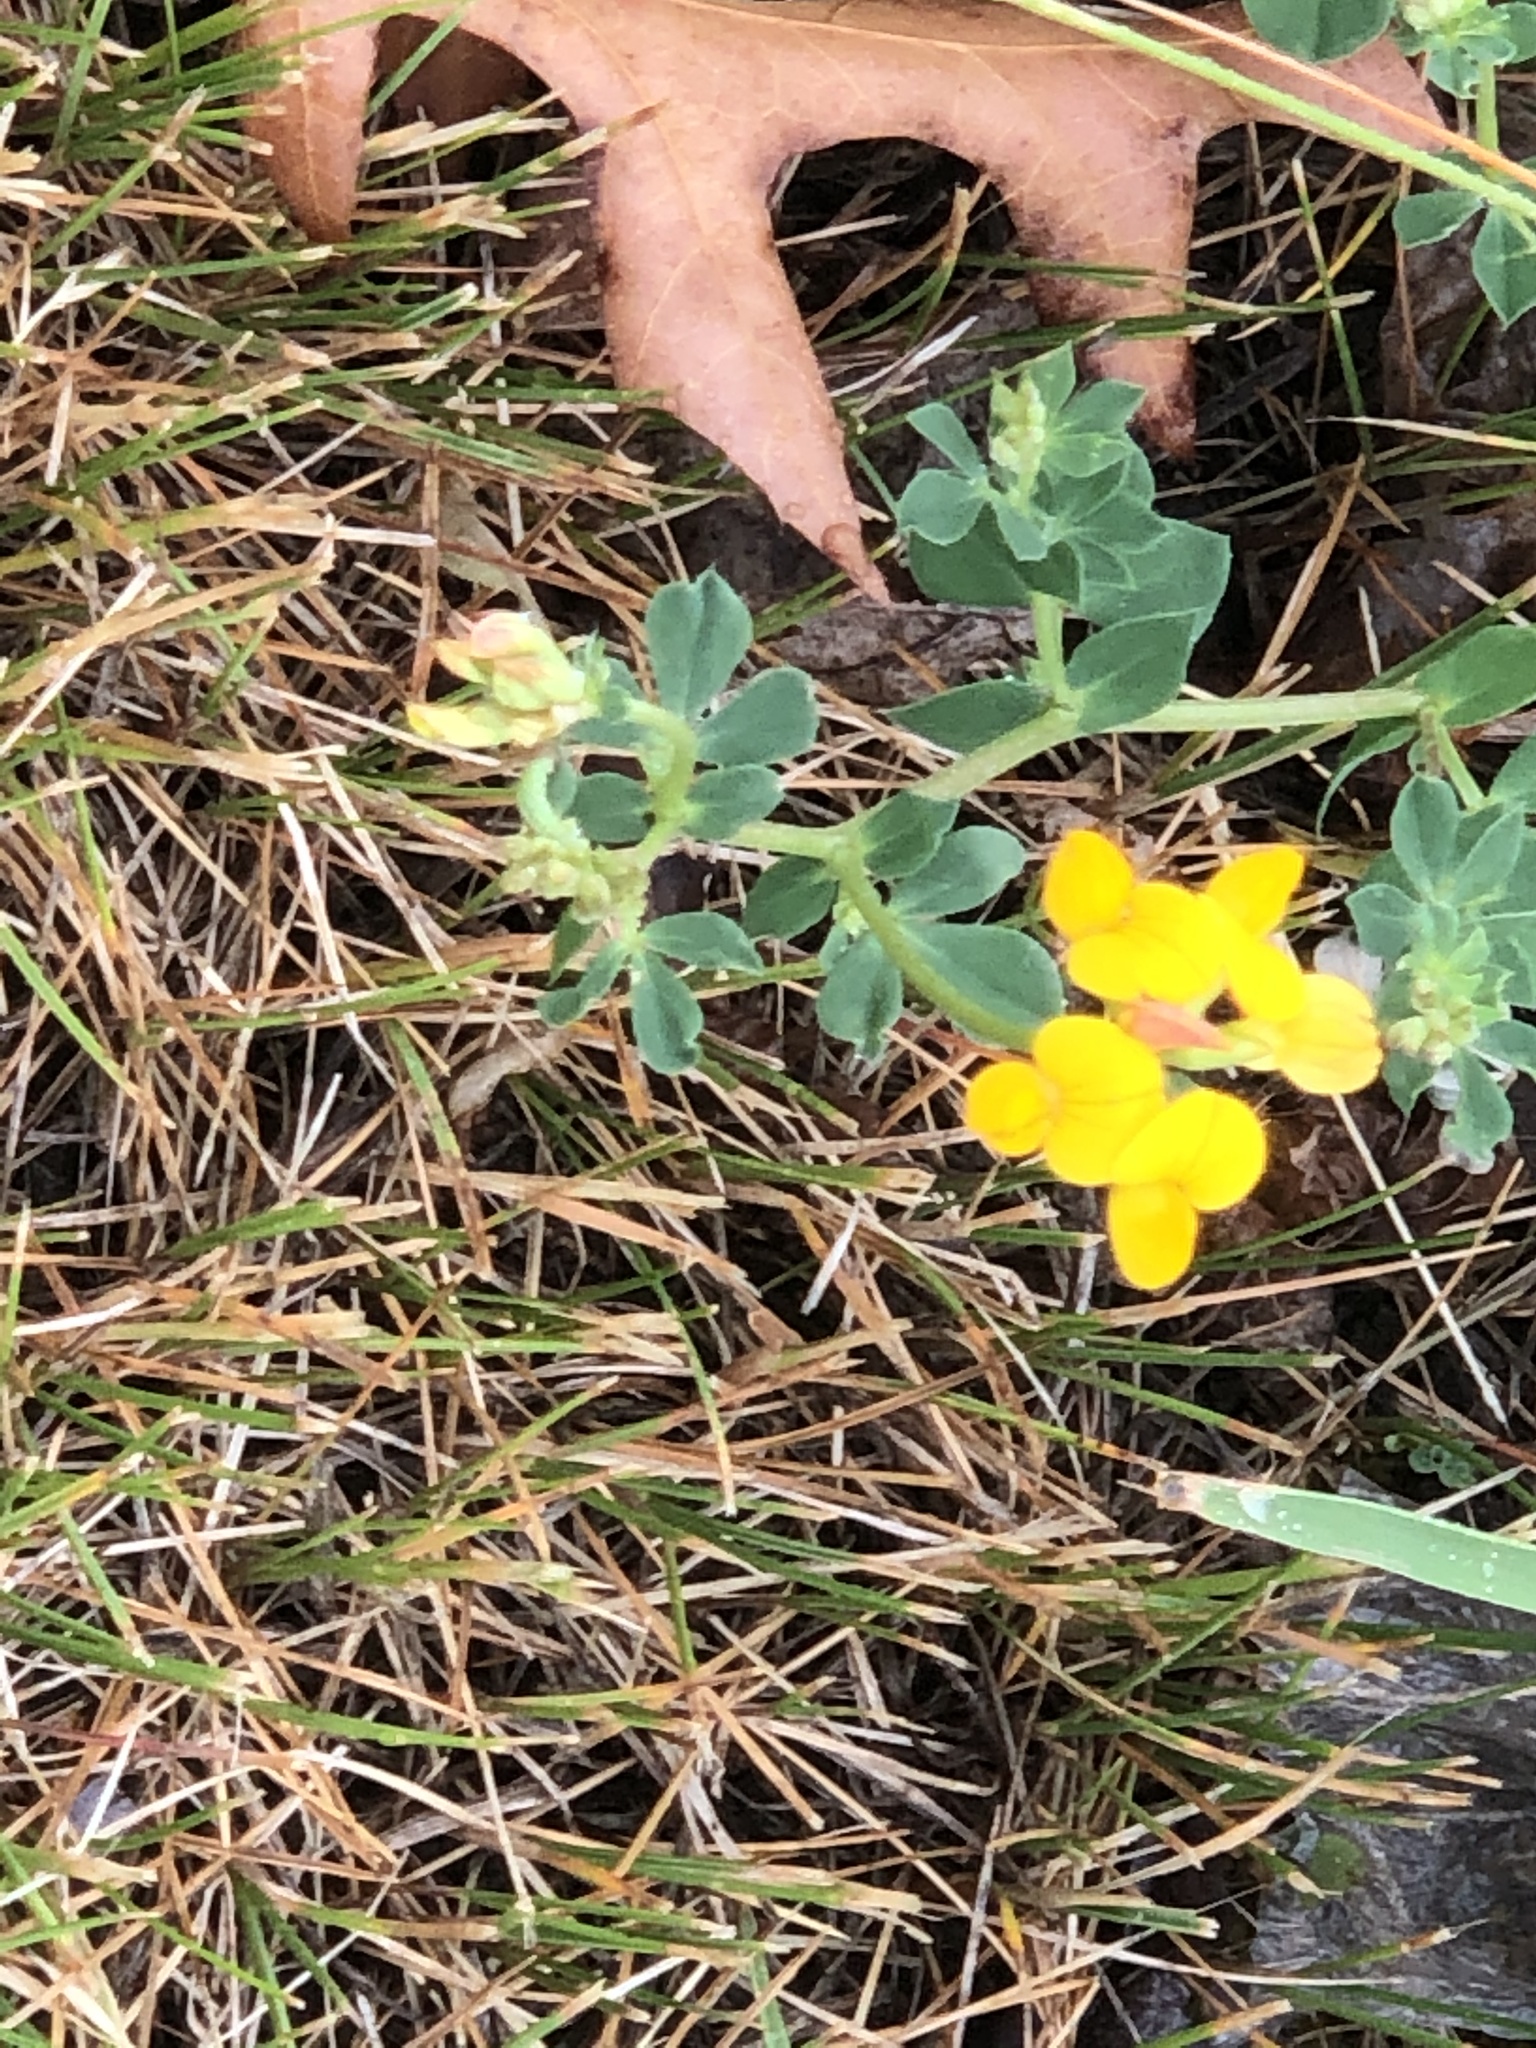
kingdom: Plantae
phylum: Tracheophyta
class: Magnoliopsida
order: Fabales
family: Fabaceae
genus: Lotus
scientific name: Lotus corniculatus
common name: Common bird's-foot-trefoil
